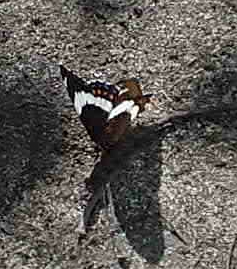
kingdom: Animalia
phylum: Arthropoda
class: Insecta
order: Lepidoptera
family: Nymphalidae
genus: Limenitis
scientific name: Limenitis arthemis
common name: Red-spotted admiral
